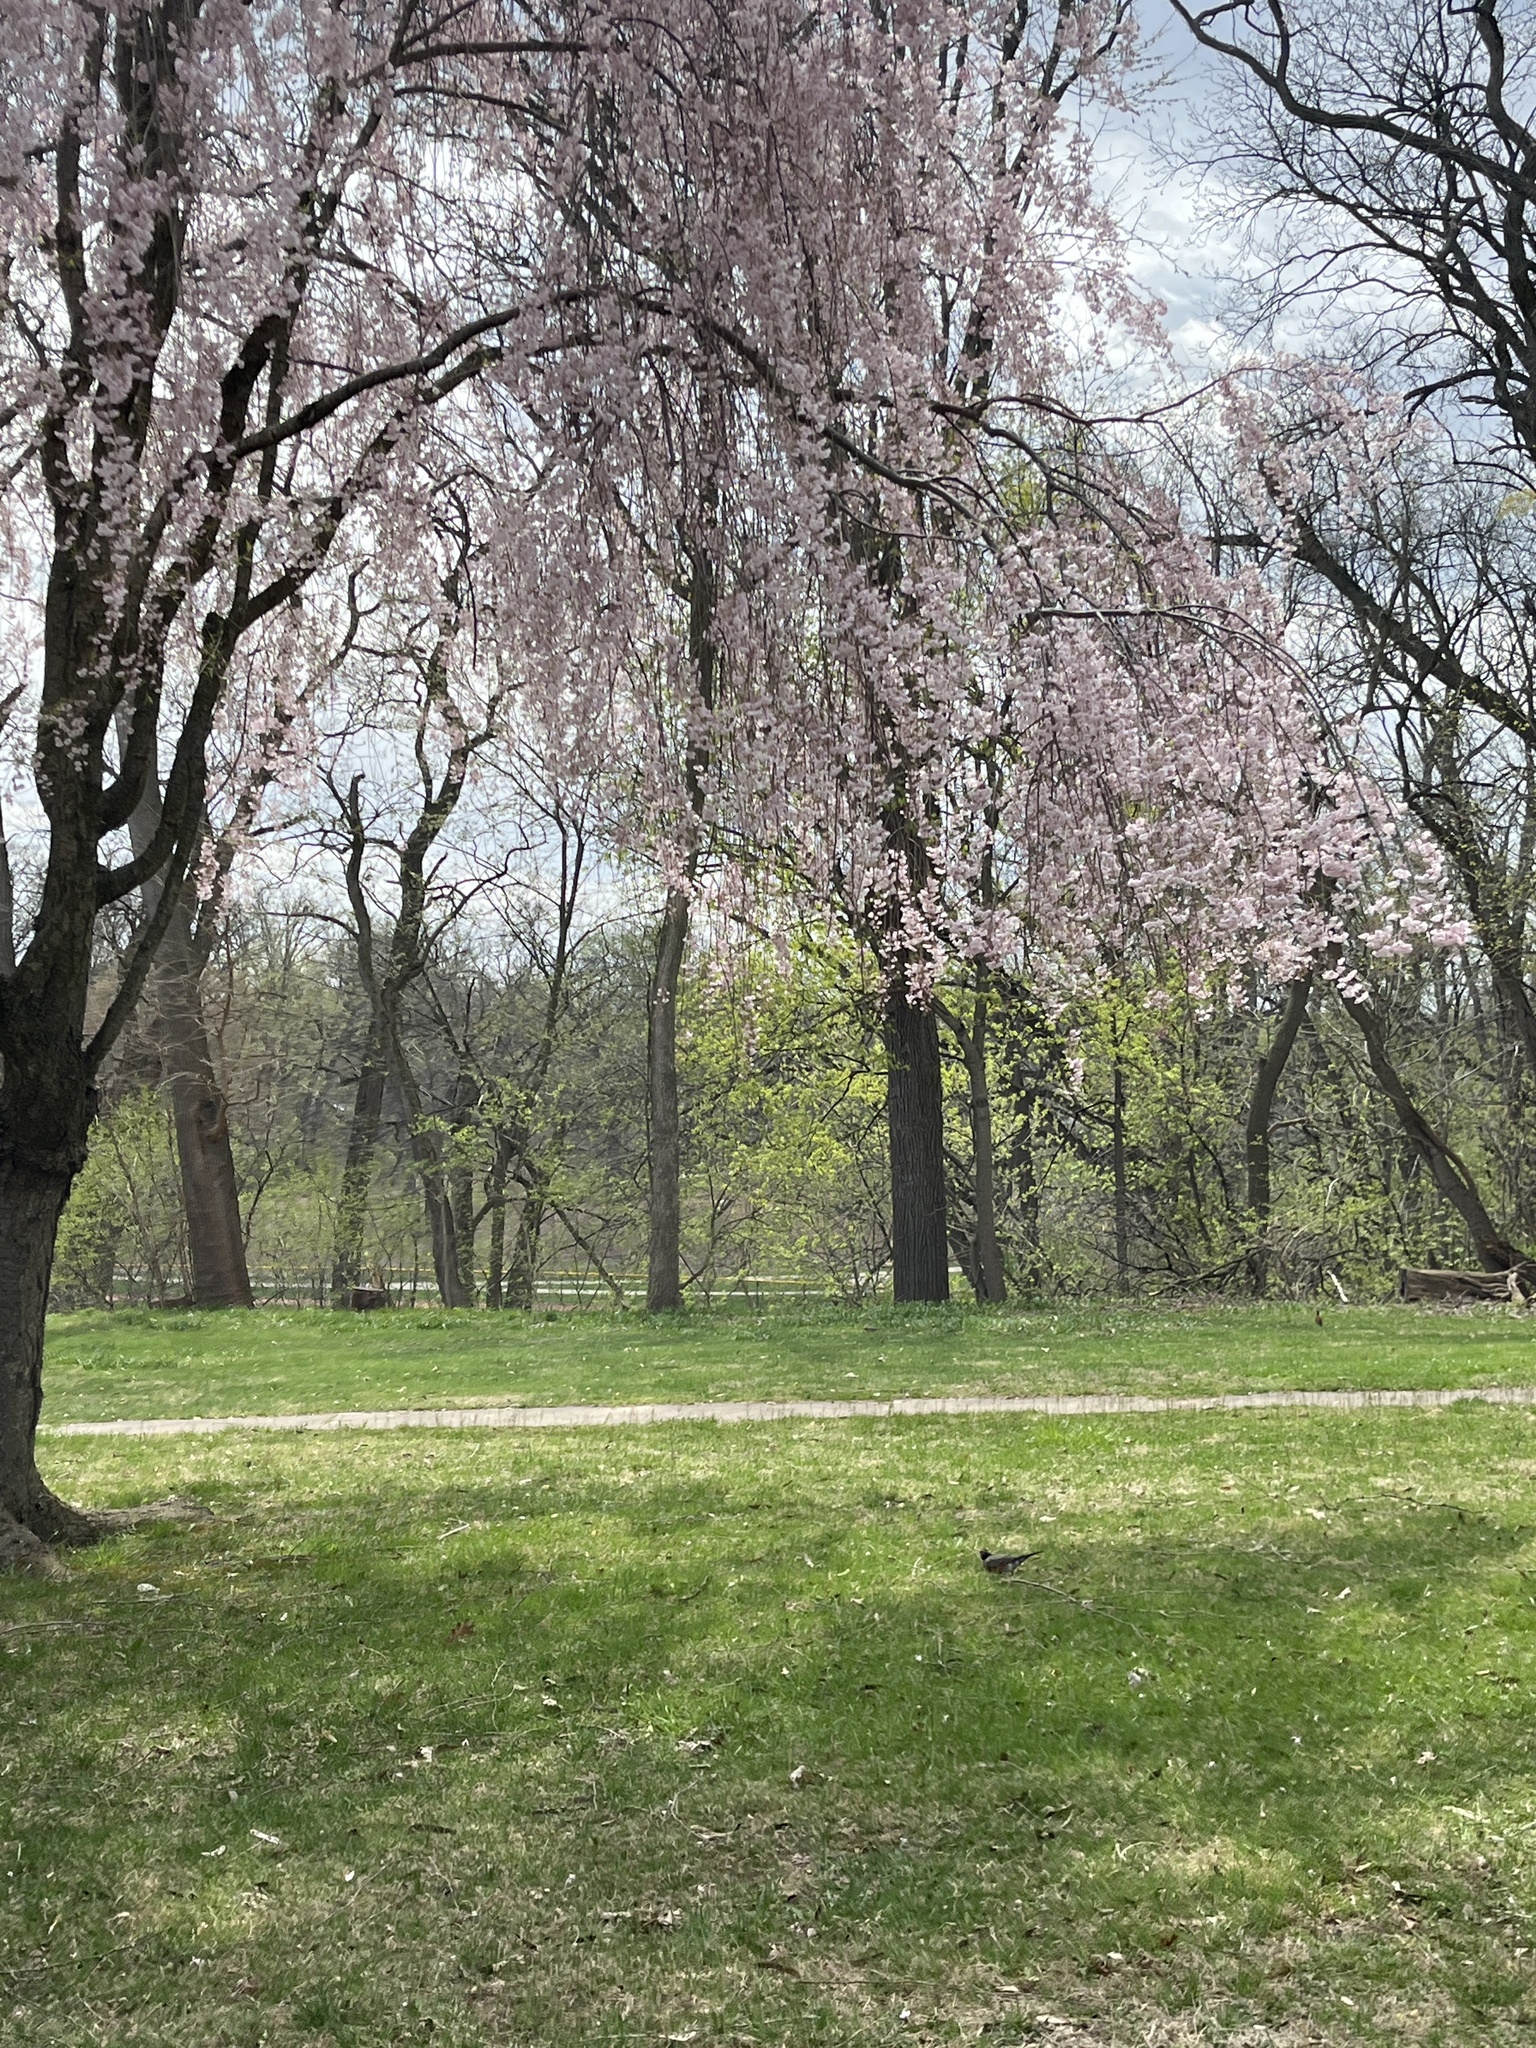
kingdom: Animalia
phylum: Chordata
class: Aves
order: Passeriformes
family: Turdidae
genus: Turdus
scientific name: Turdus migratorius
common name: American robin
